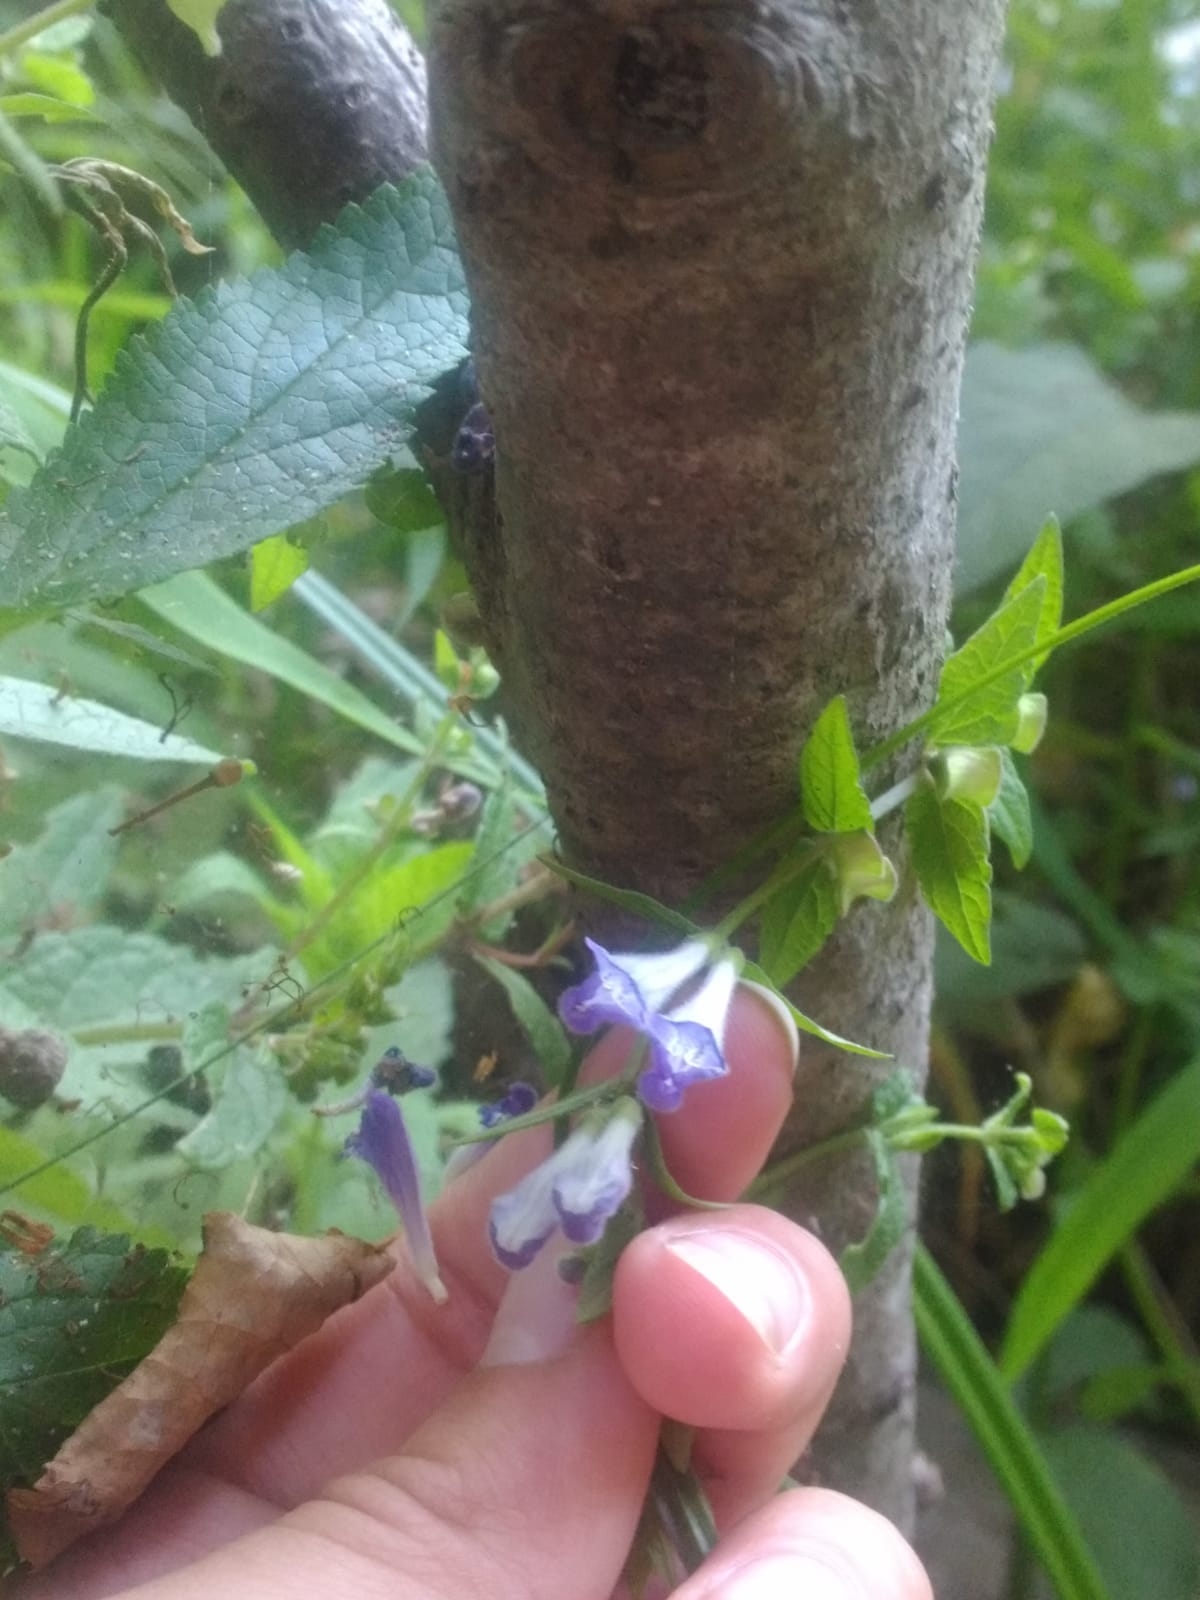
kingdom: Plantae
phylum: Tracheophyta
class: Magnoliopsida
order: Lamiales
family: Lamiaceae
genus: Scutellaria
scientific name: Scutellaria galericulata
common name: Skullcap
